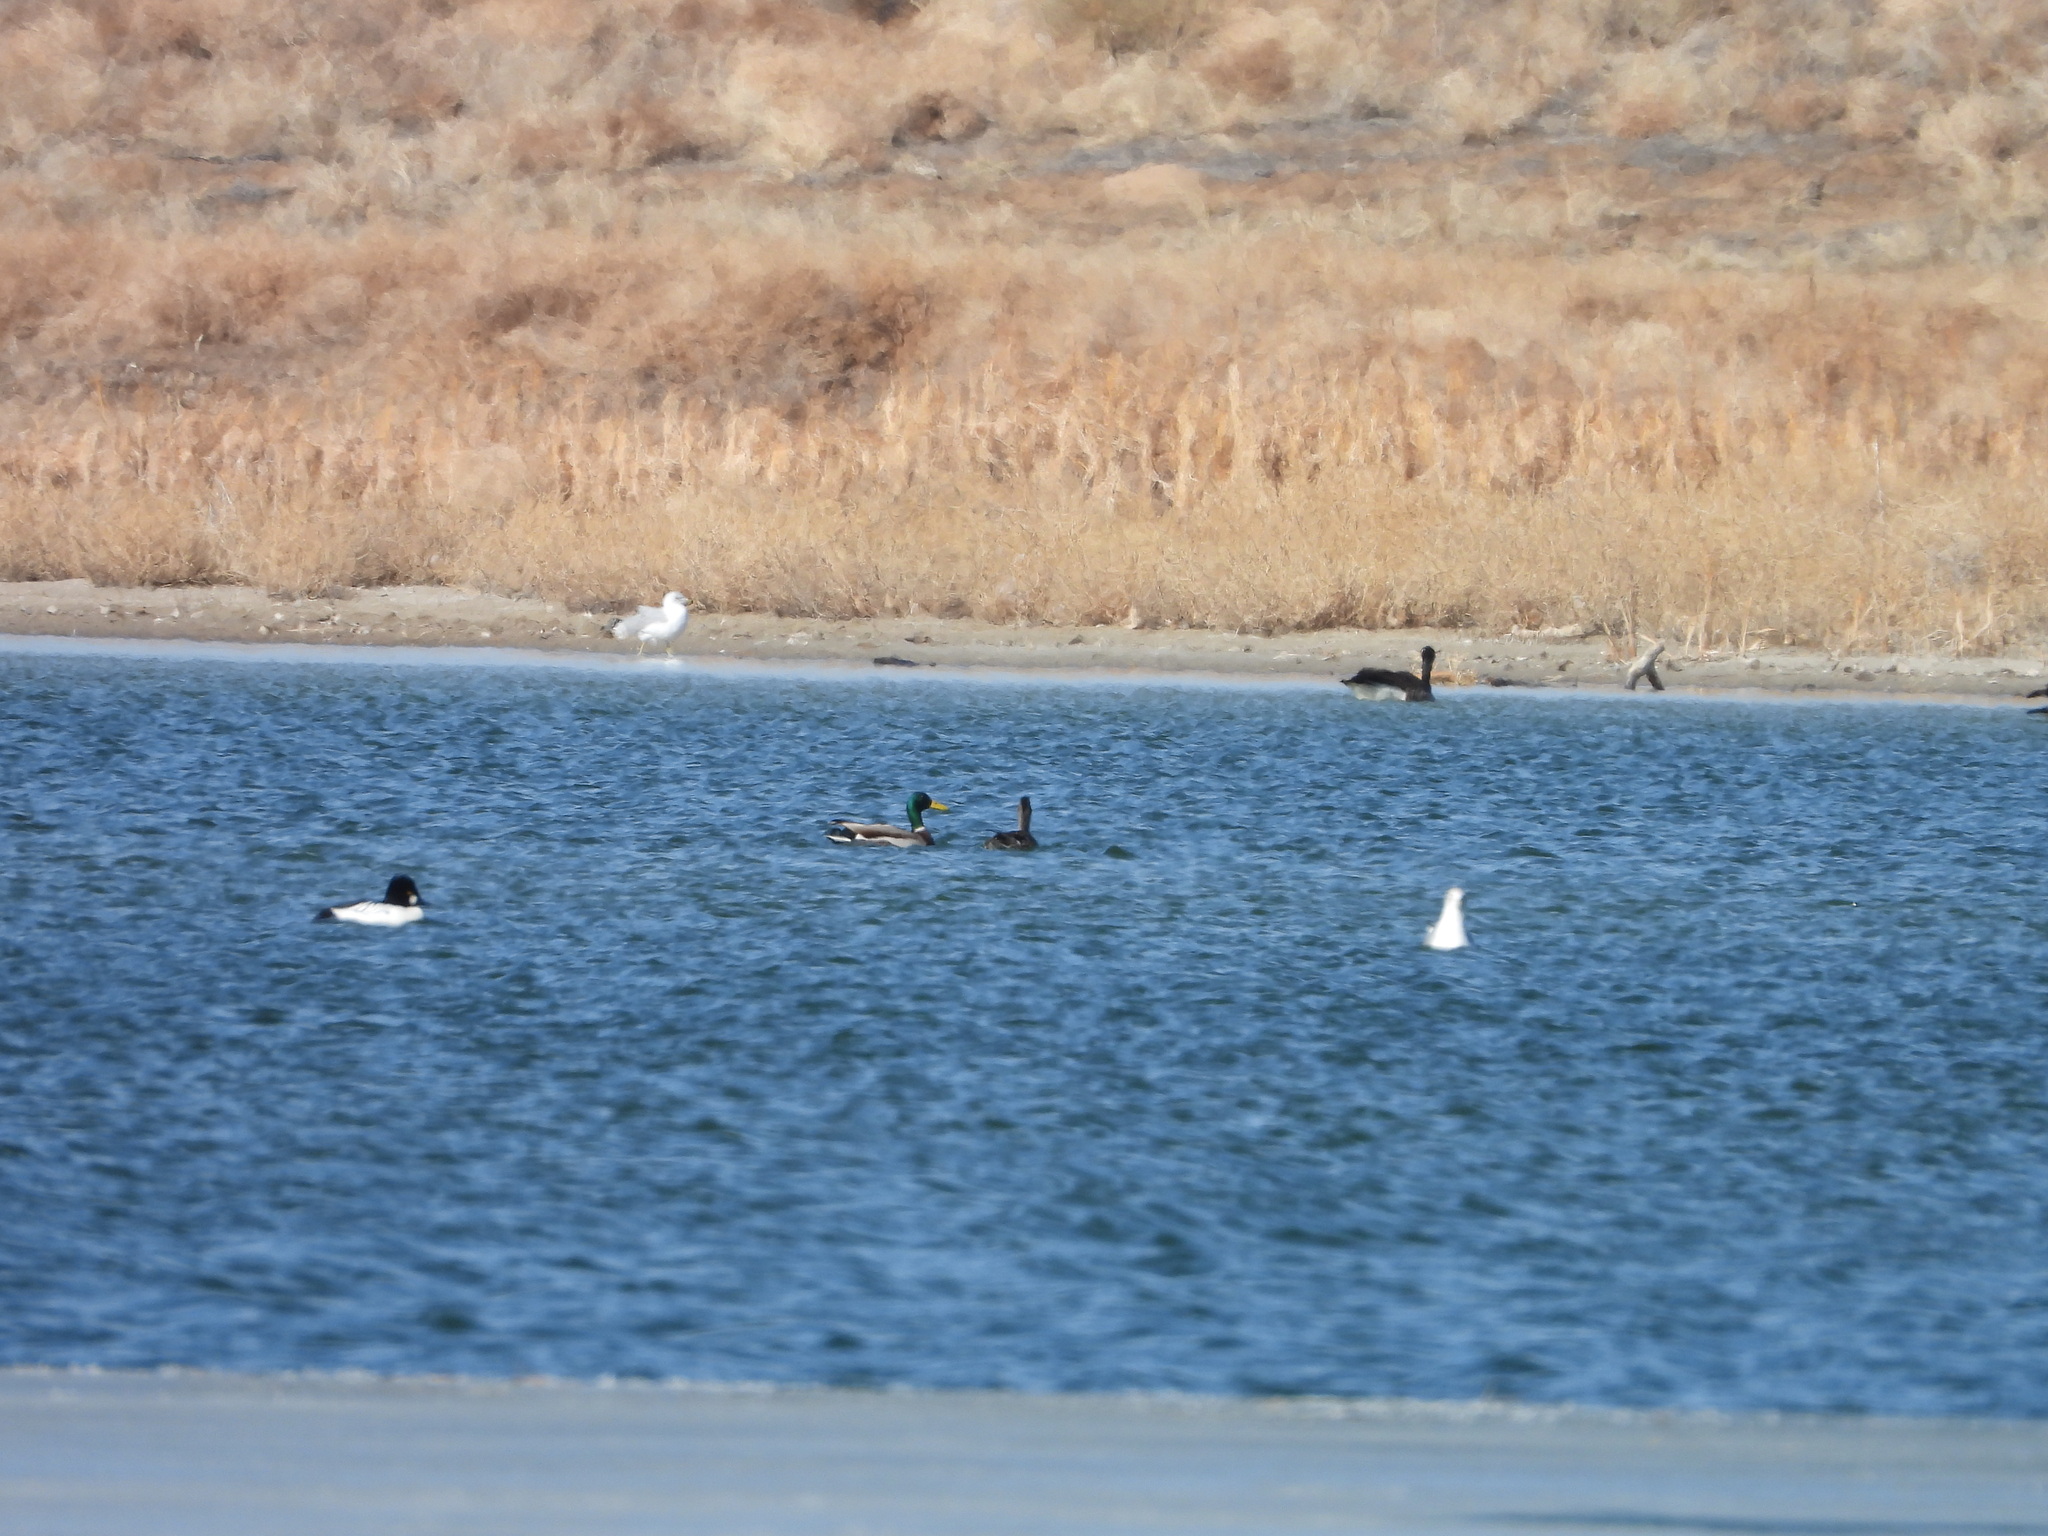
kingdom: Animalia
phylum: Chordata
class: Aves
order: Anseriformes
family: Anatidae
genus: Anas
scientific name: Anas platyrhynchos
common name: Mallard
